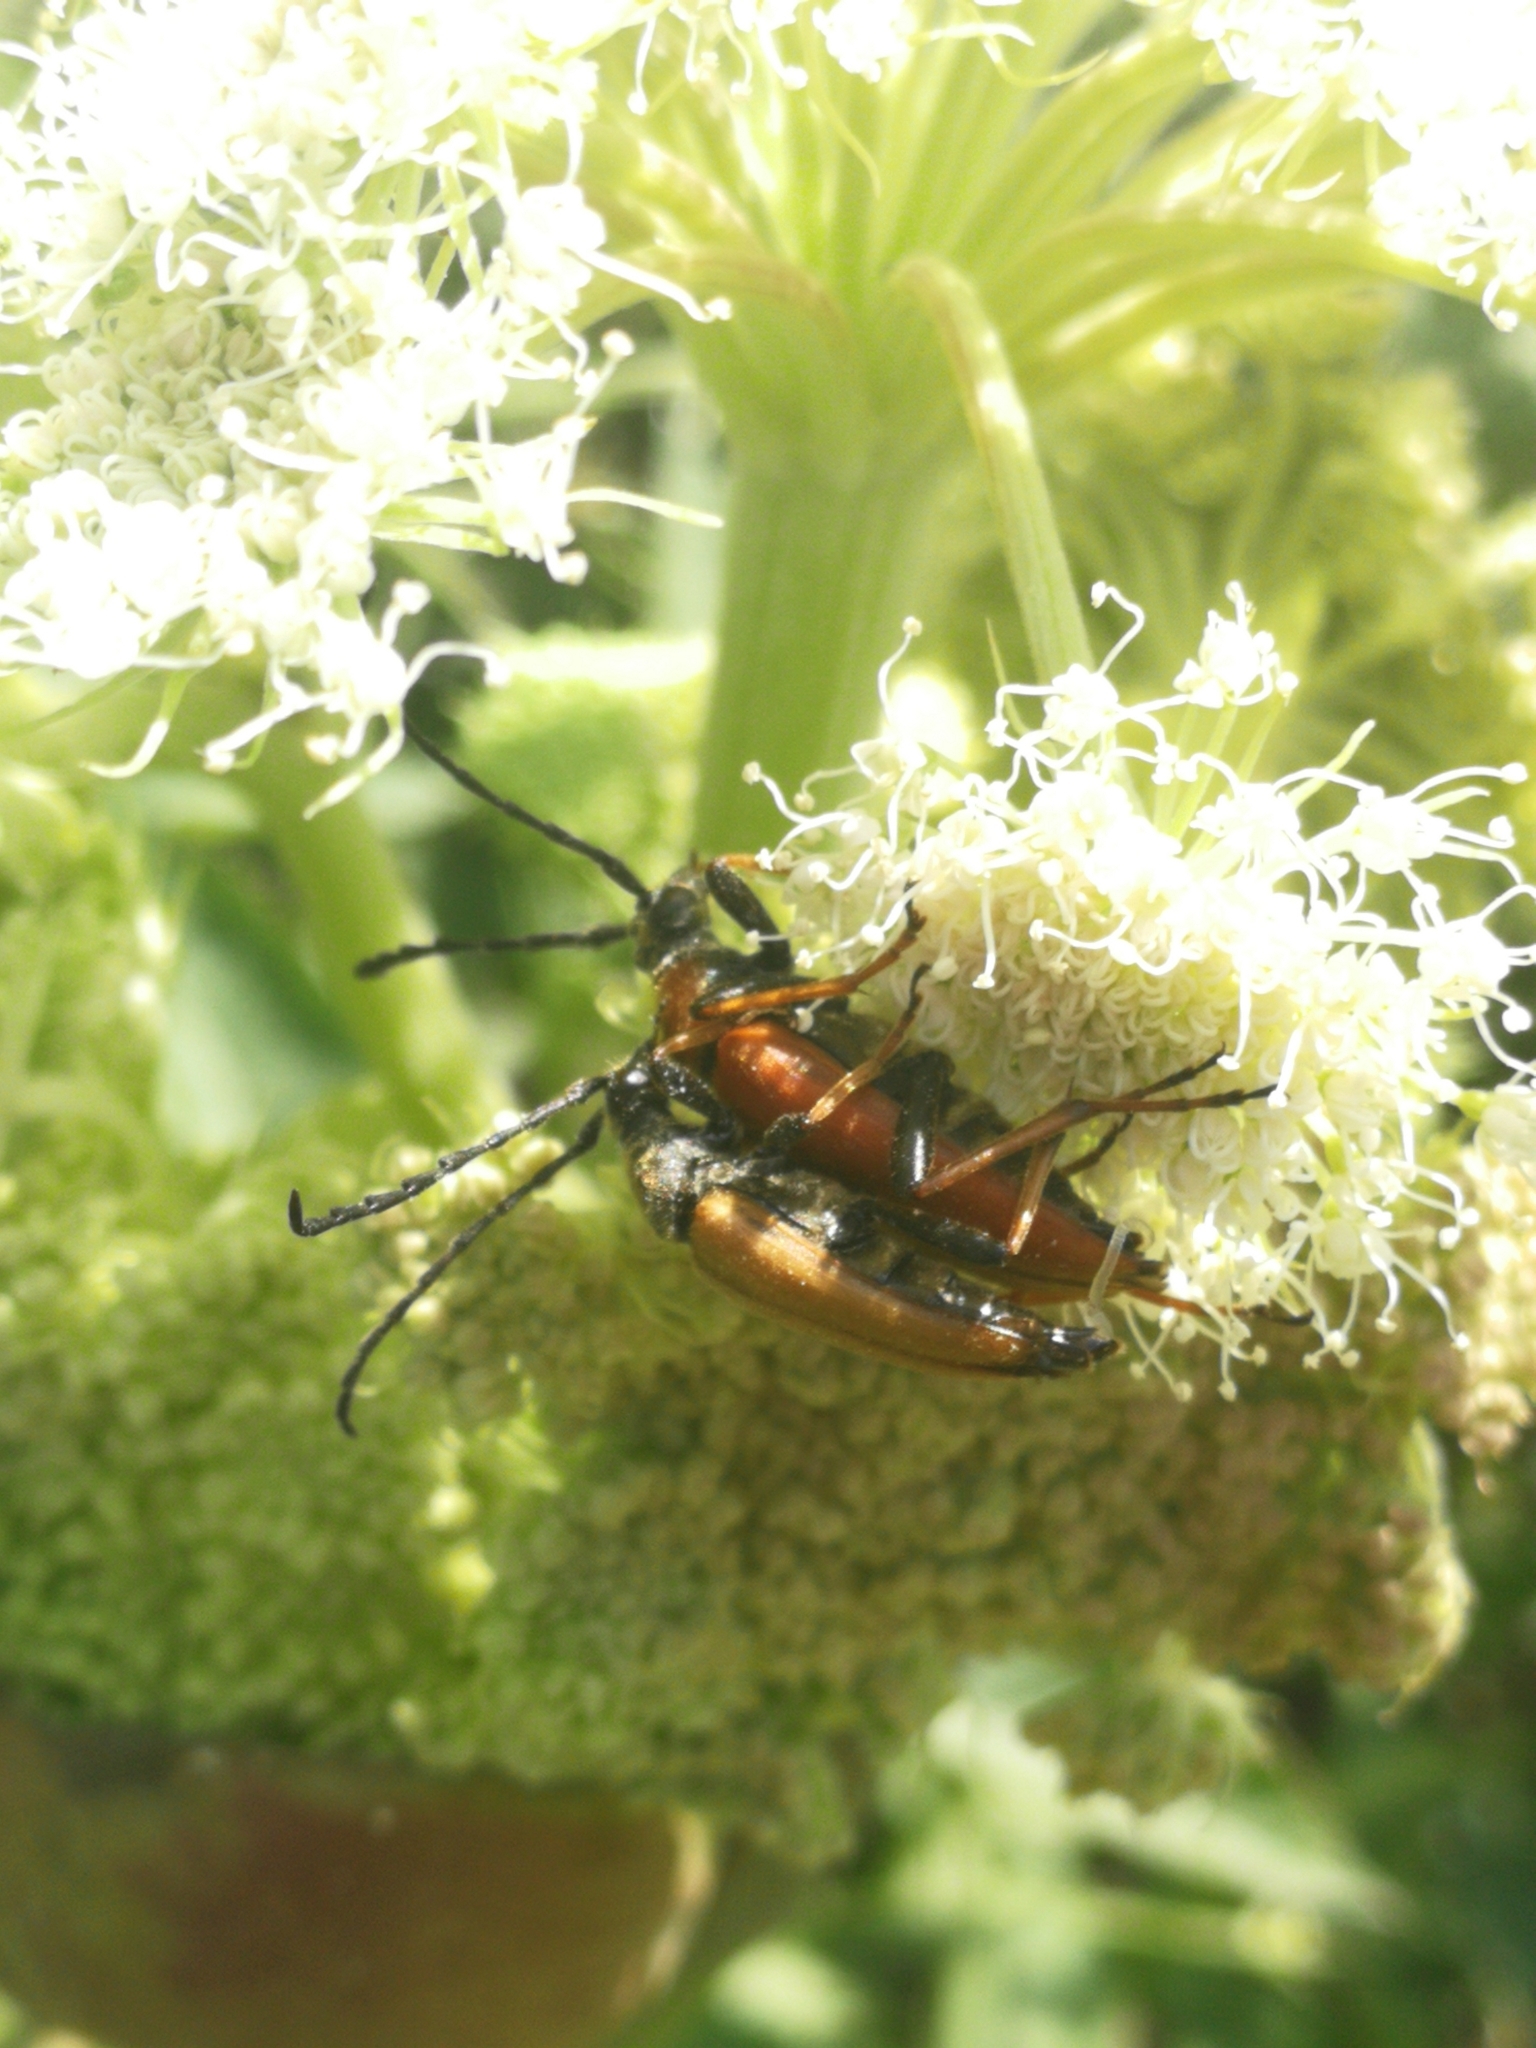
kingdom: Animalia
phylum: Arthropoda
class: Insecta
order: Coleoptera
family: Cerambycidae
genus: Stictoleptura
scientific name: Stictoleptura rubra
